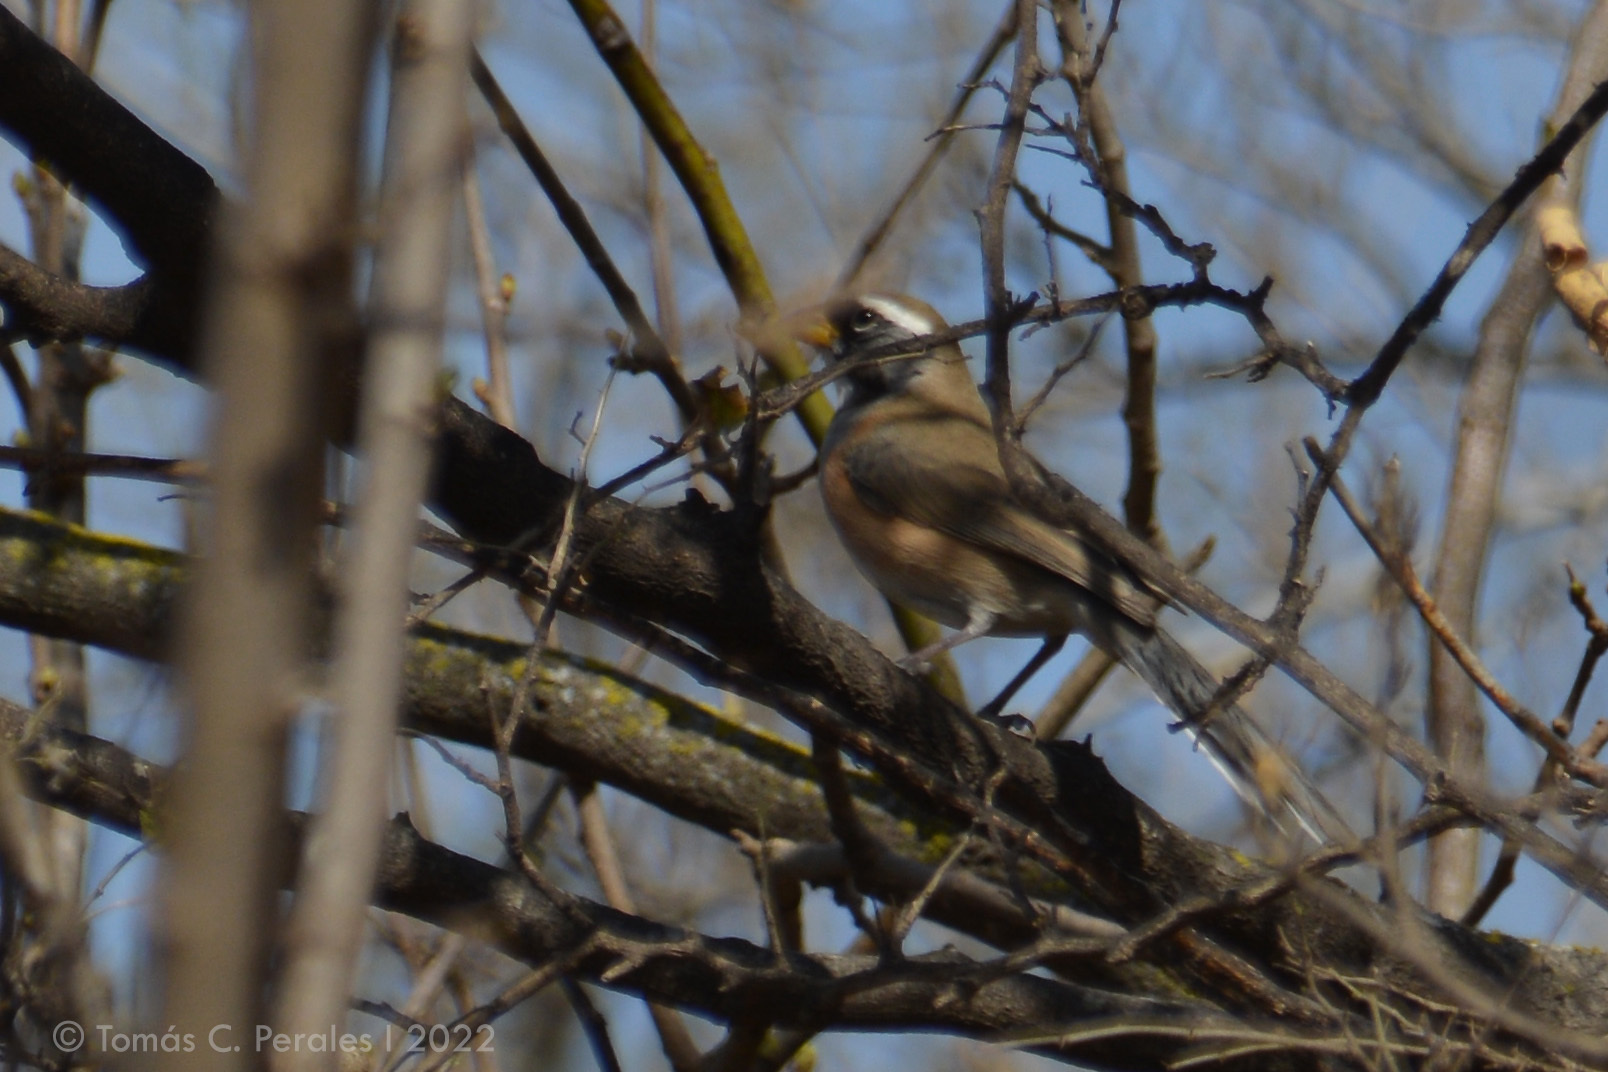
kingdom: Animalia
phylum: Chordata
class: Aves
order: Passeriformes
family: Thraupidae
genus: Saltatricula
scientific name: Saltatricula multicolor
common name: Many-colored chaco finch
